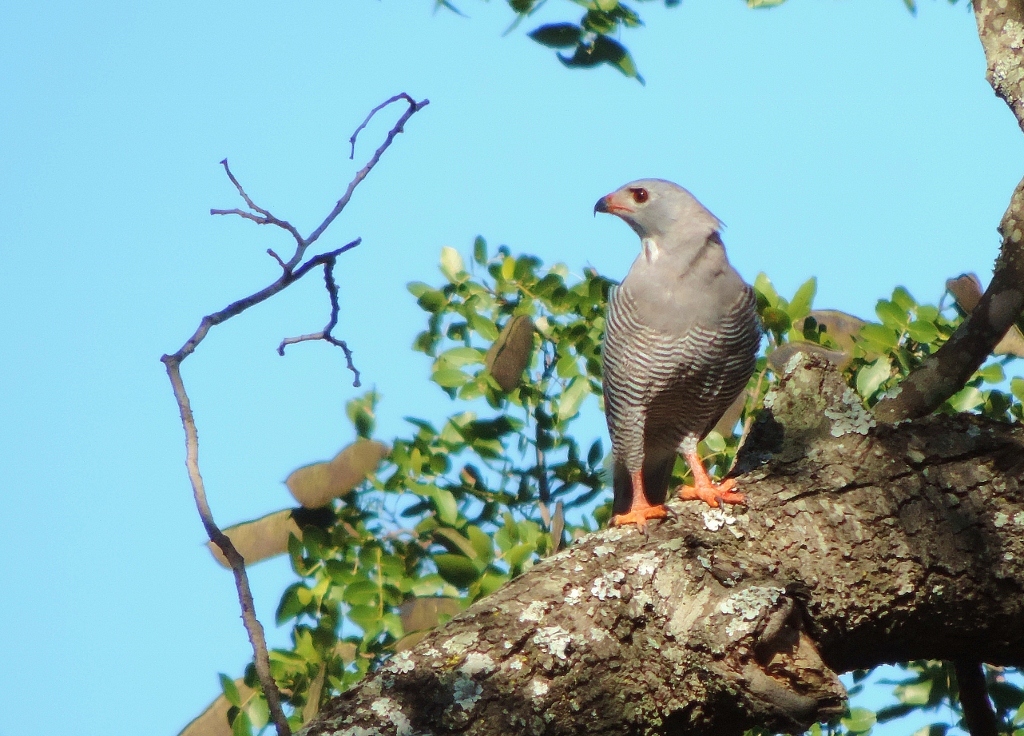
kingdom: Animalia
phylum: Chordata
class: Aves
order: Accipitriformes
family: Accipitridae
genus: Kaupifalco
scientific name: Kaupifalco monogrammicus
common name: Lizard buzzard
